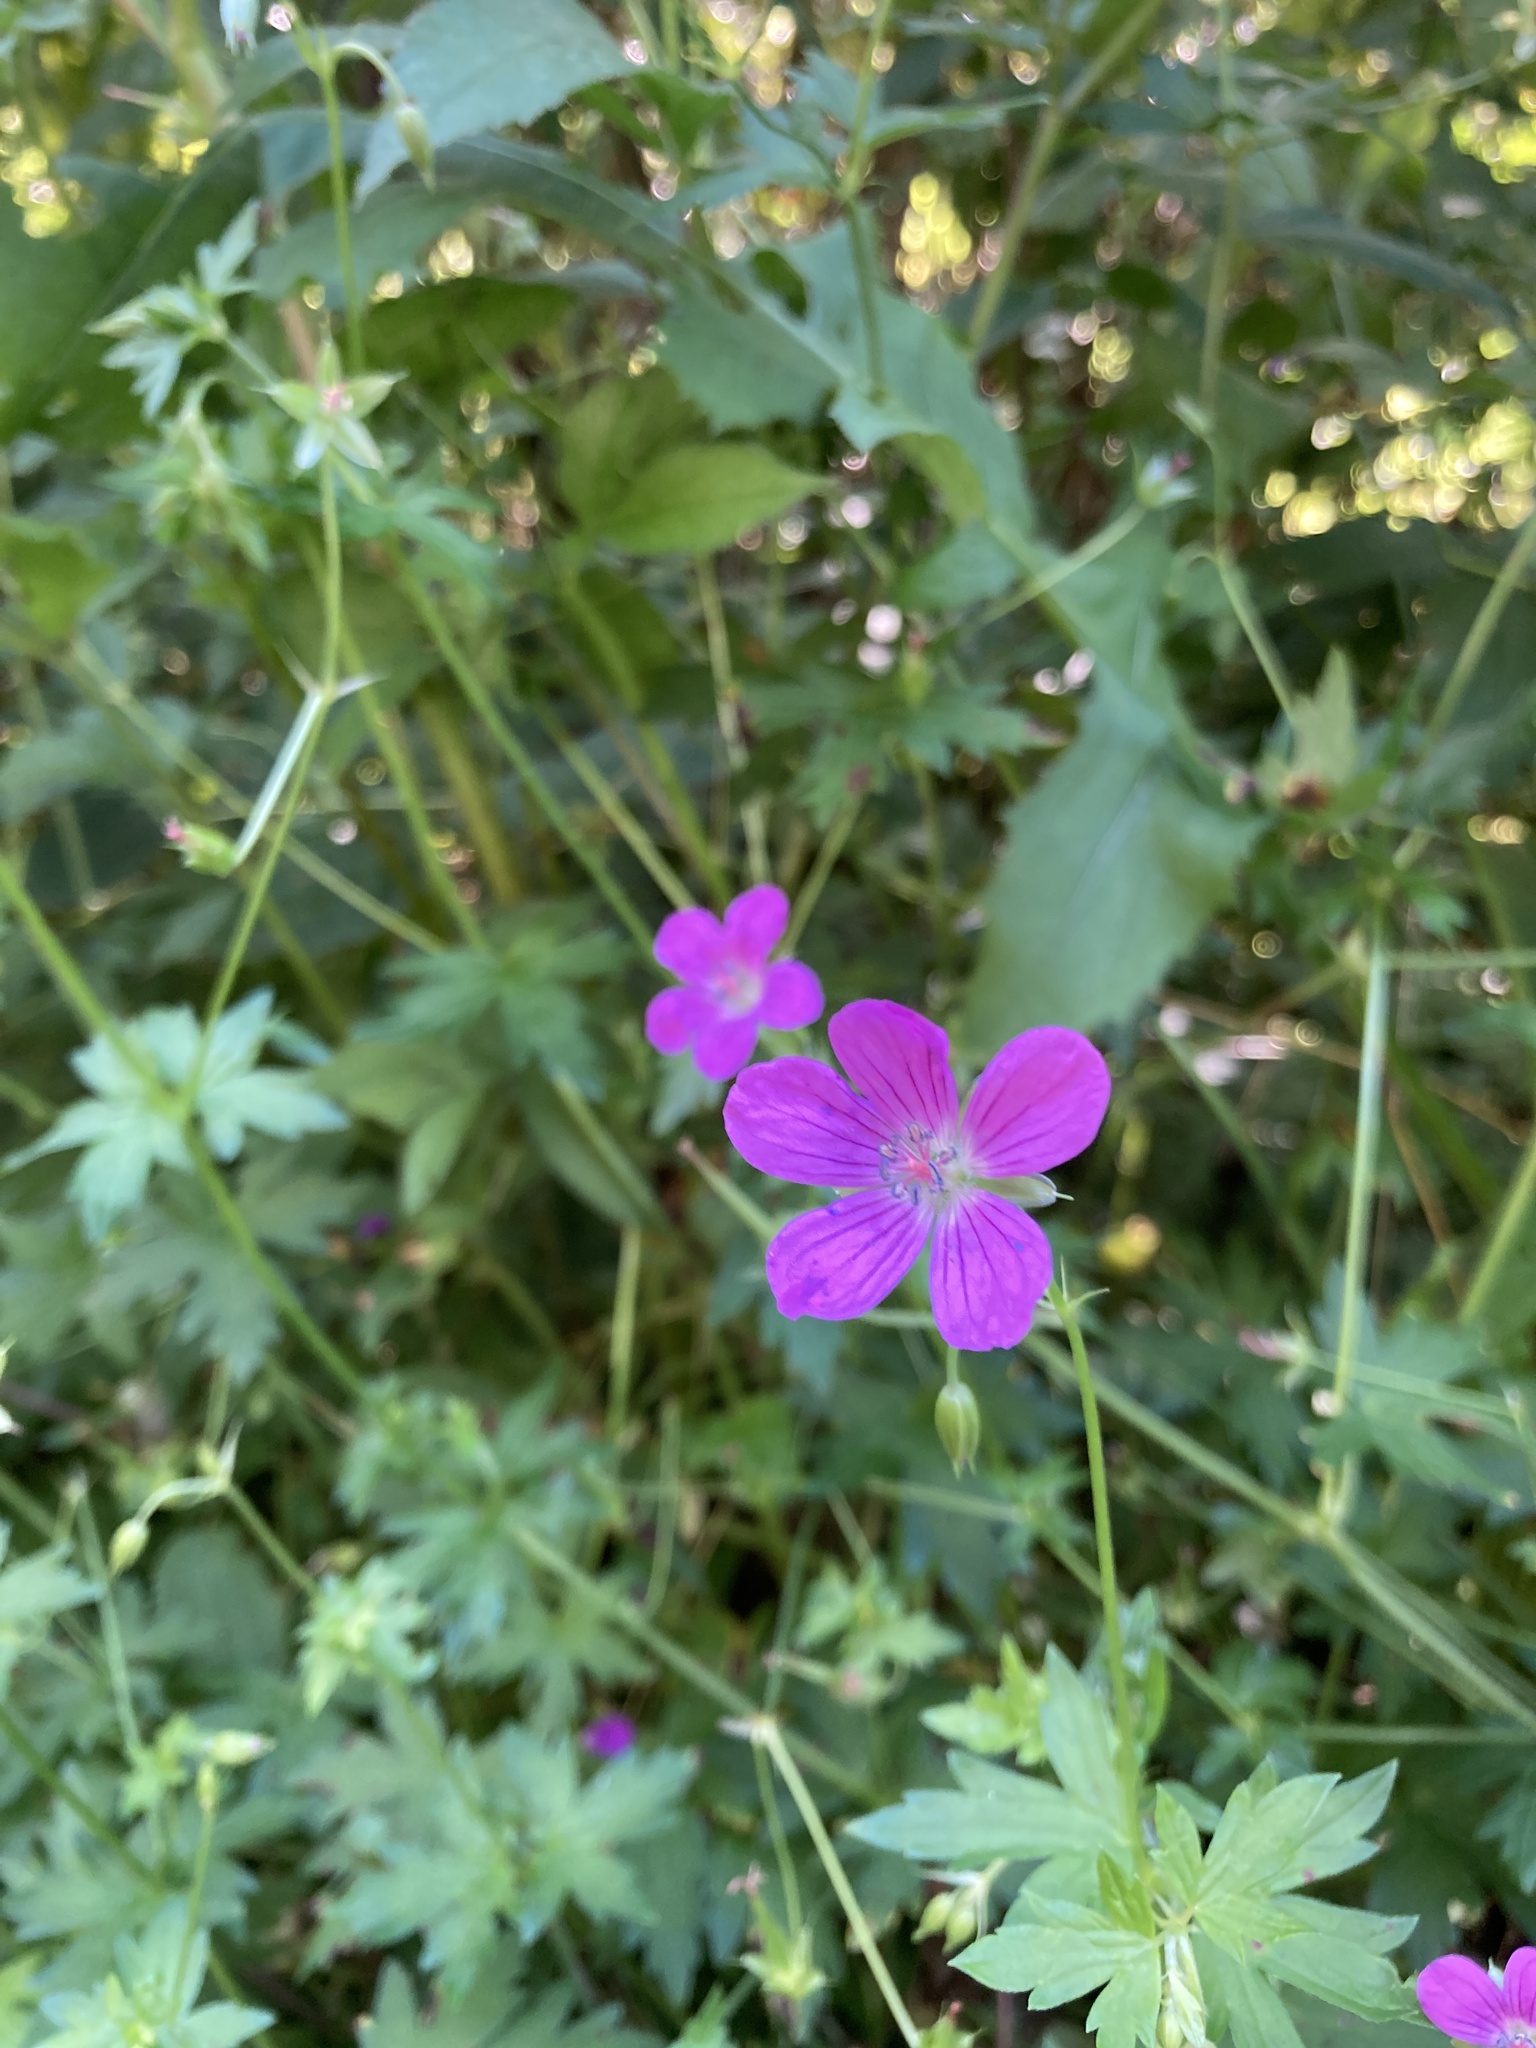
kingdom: Plantae
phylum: Tracheophyta
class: Magnoliopsida
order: Geraniales
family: Geraniaceae
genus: Geranium
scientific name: Geranium palustre
